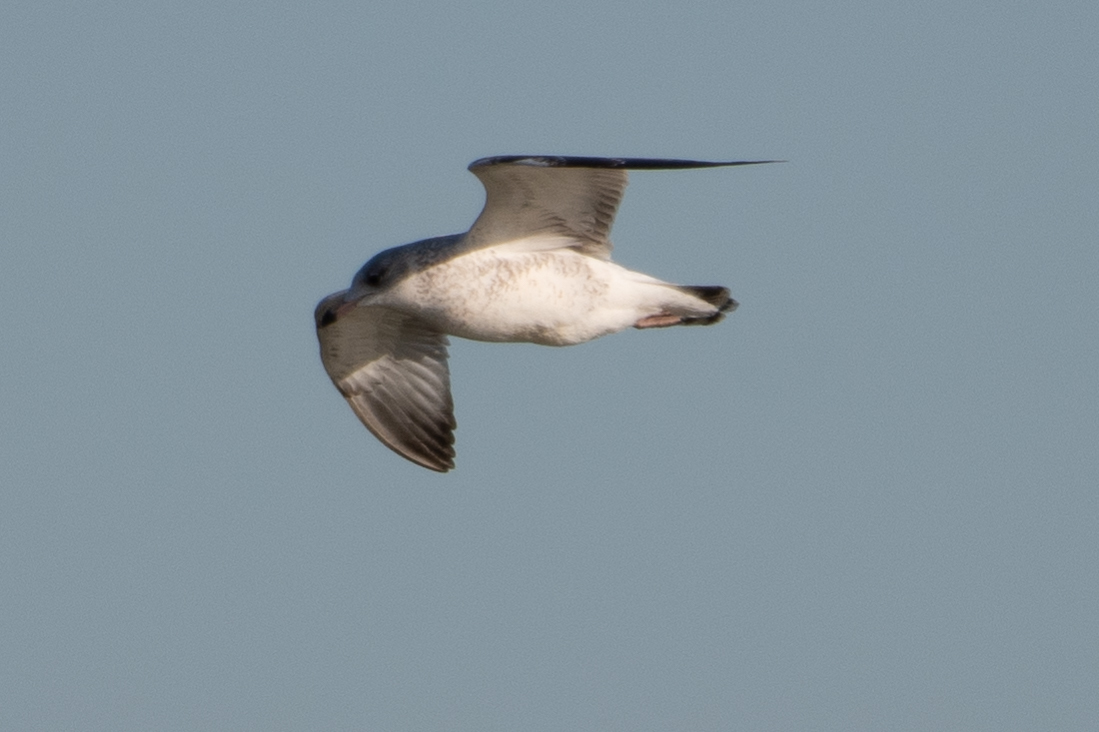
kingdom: Animalia
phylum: Chordata
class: Aves
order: Charadriiformes
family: Laridae
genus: Larus
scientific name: Larus delawarensis
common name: Ring-billed gull
